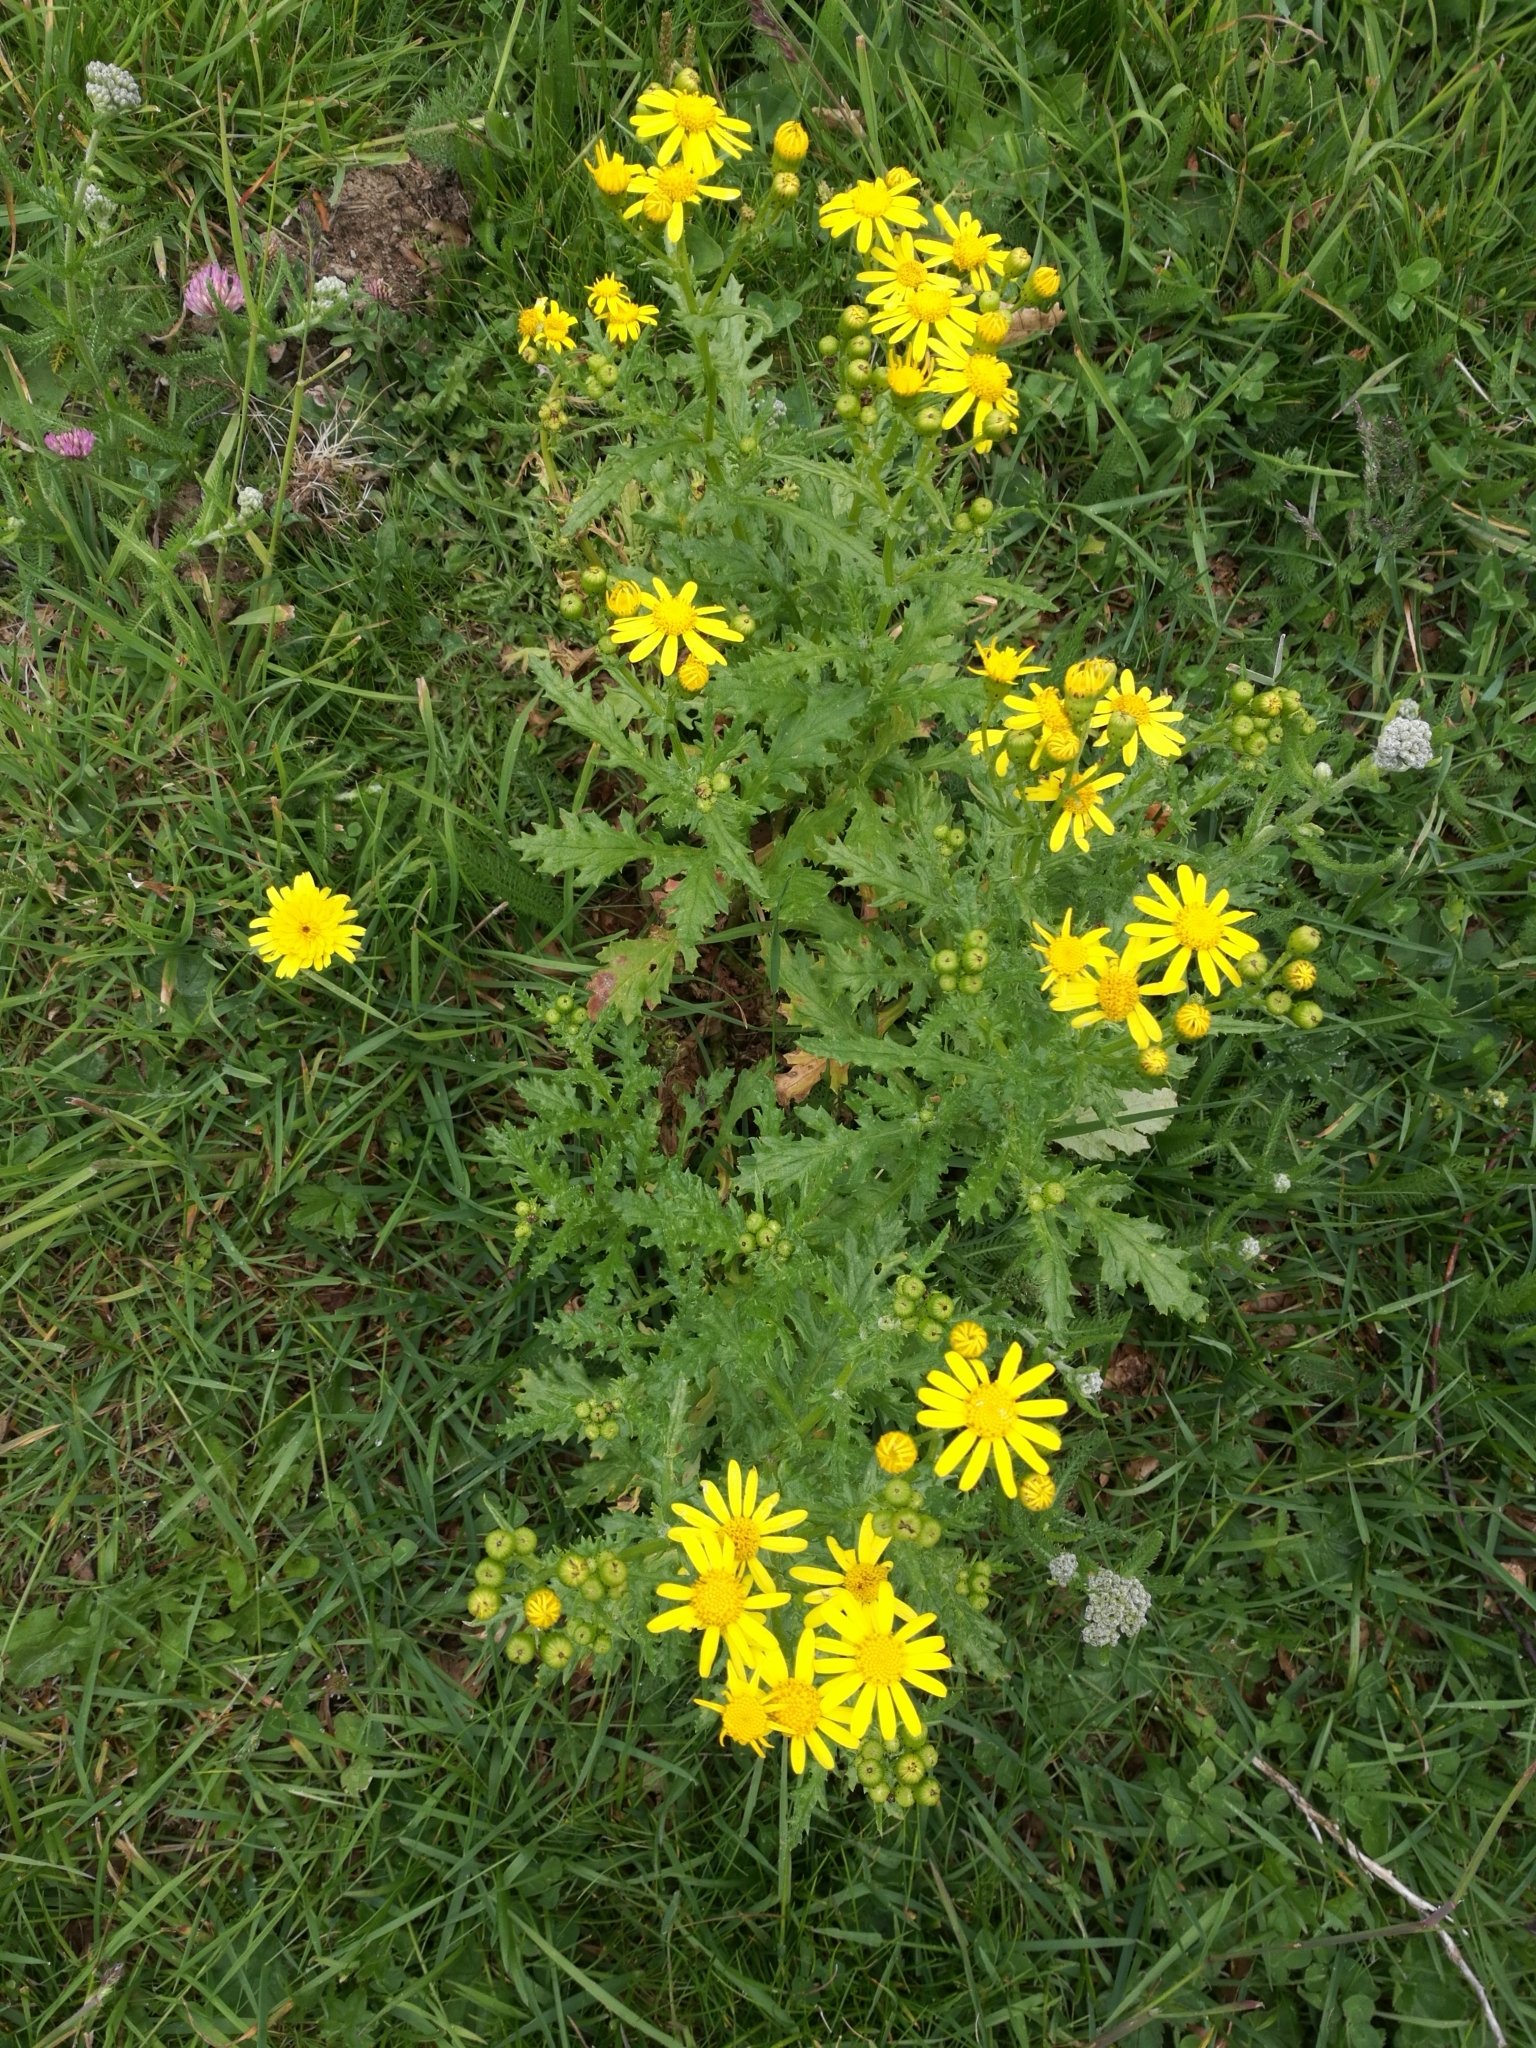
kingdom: Plantae
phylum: Tracheophyta
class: Magnoliopsida
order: Asterales
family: Asteraceae
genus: Senecio
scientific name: Senecio rupestris
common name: Rock ragwort
